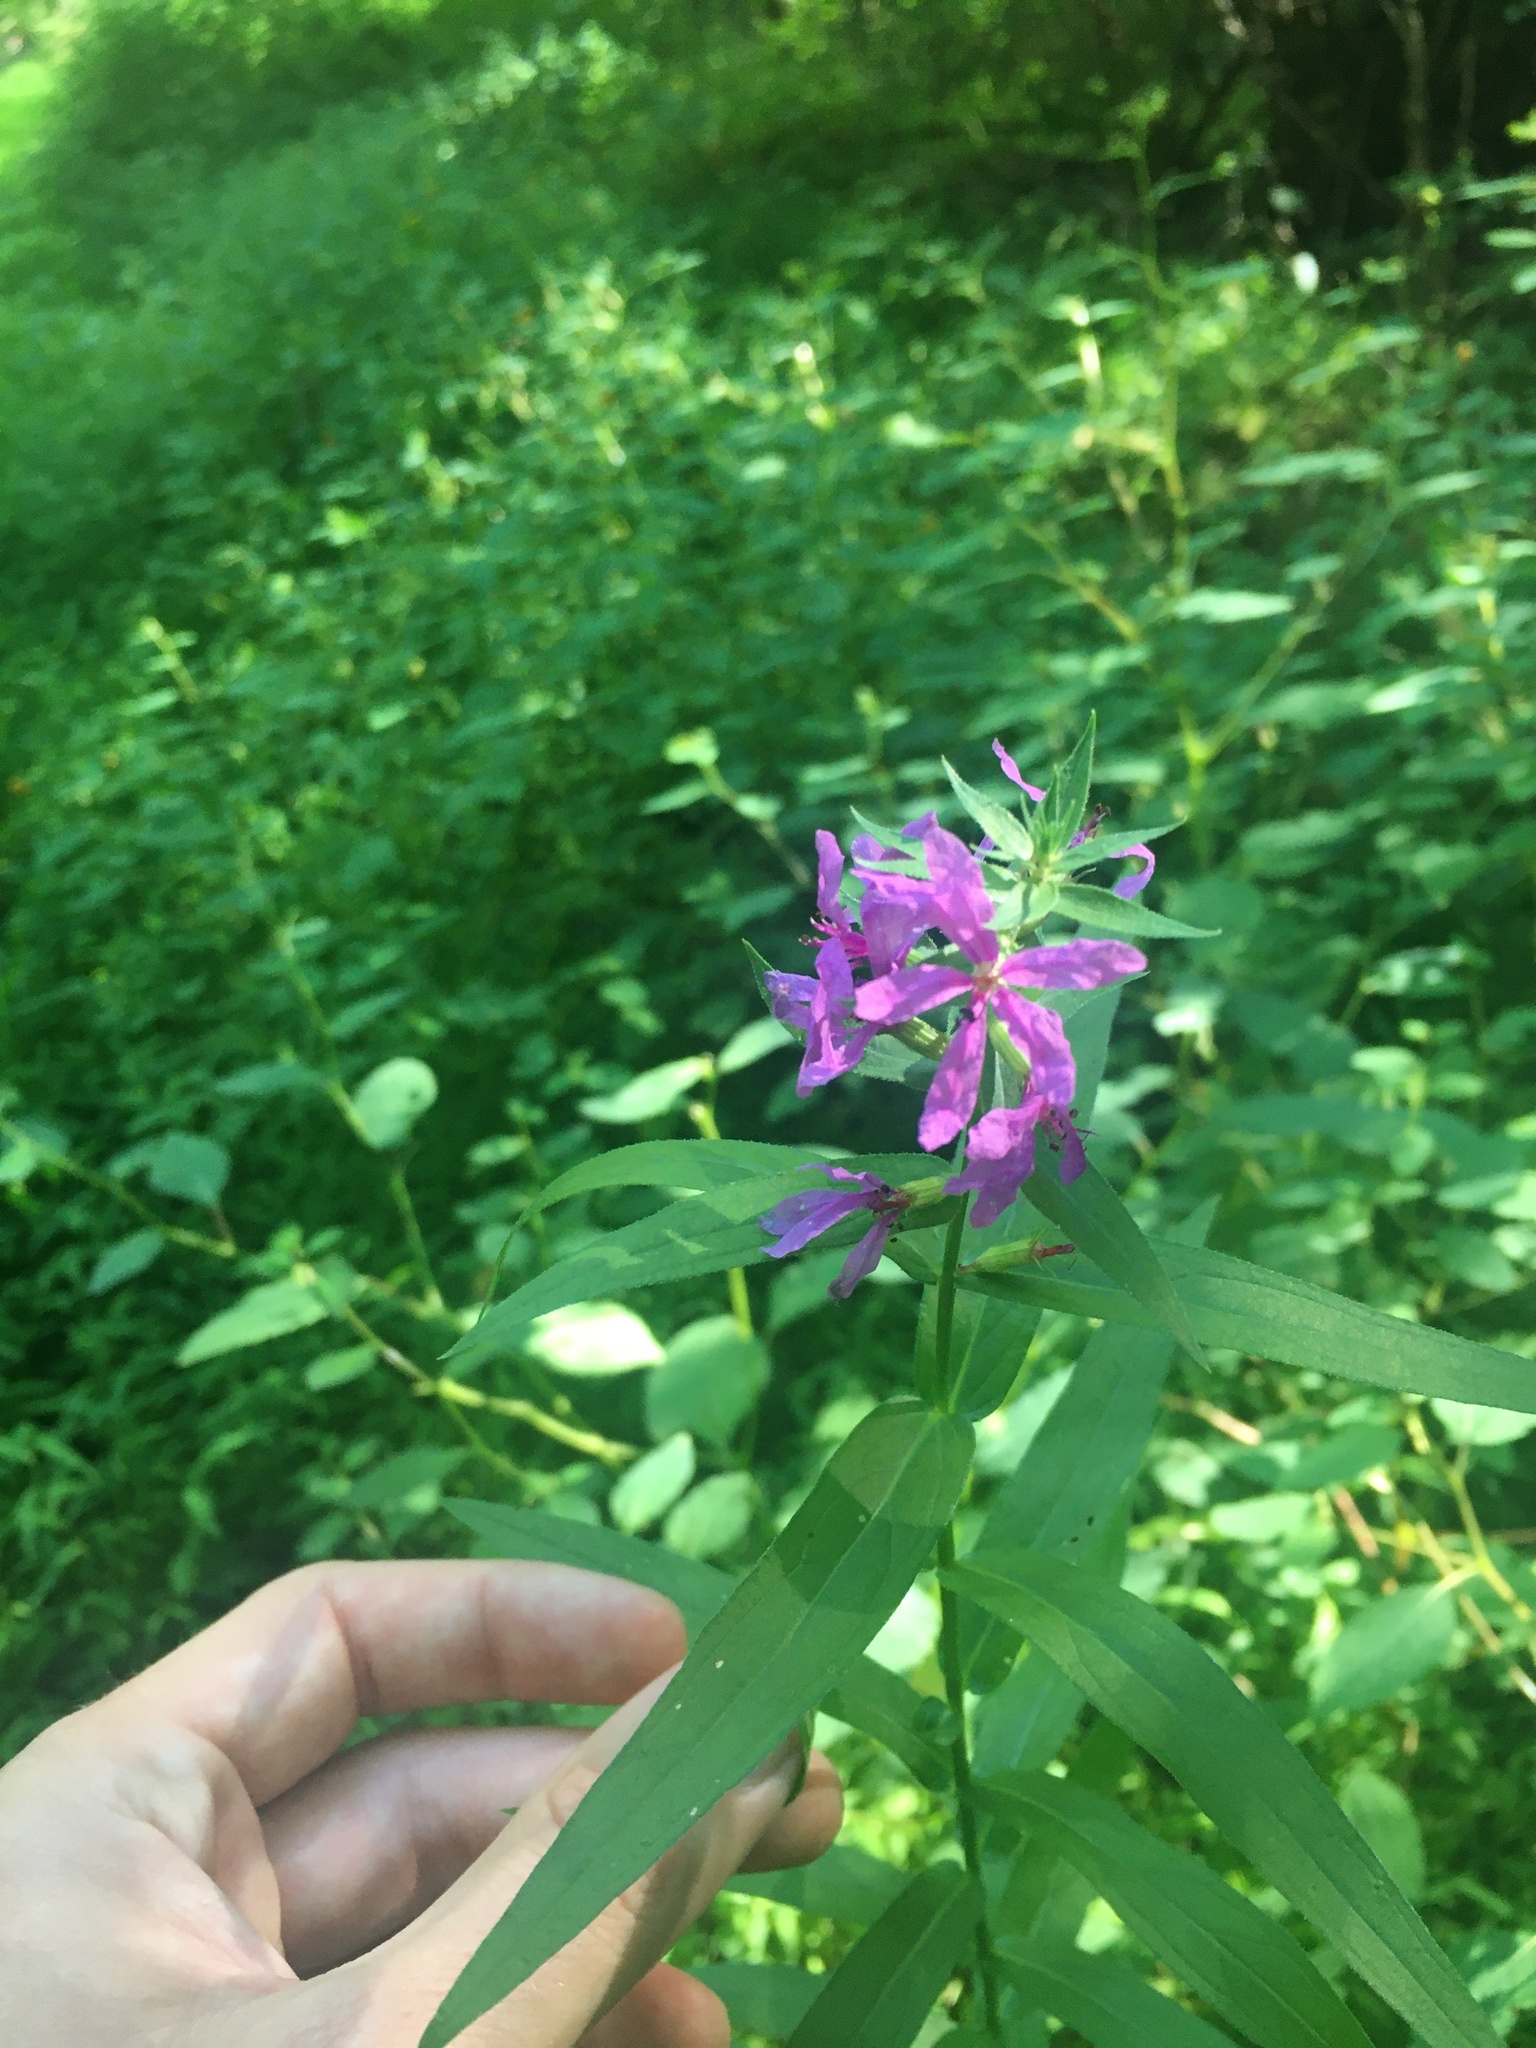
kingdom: Plantae
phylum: Tracheophyta
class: Magnoliopsida
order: Myrtales
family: Lythraceae
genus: Lythrum
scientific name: Lythrum salicaria
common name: Purple loosestrife
